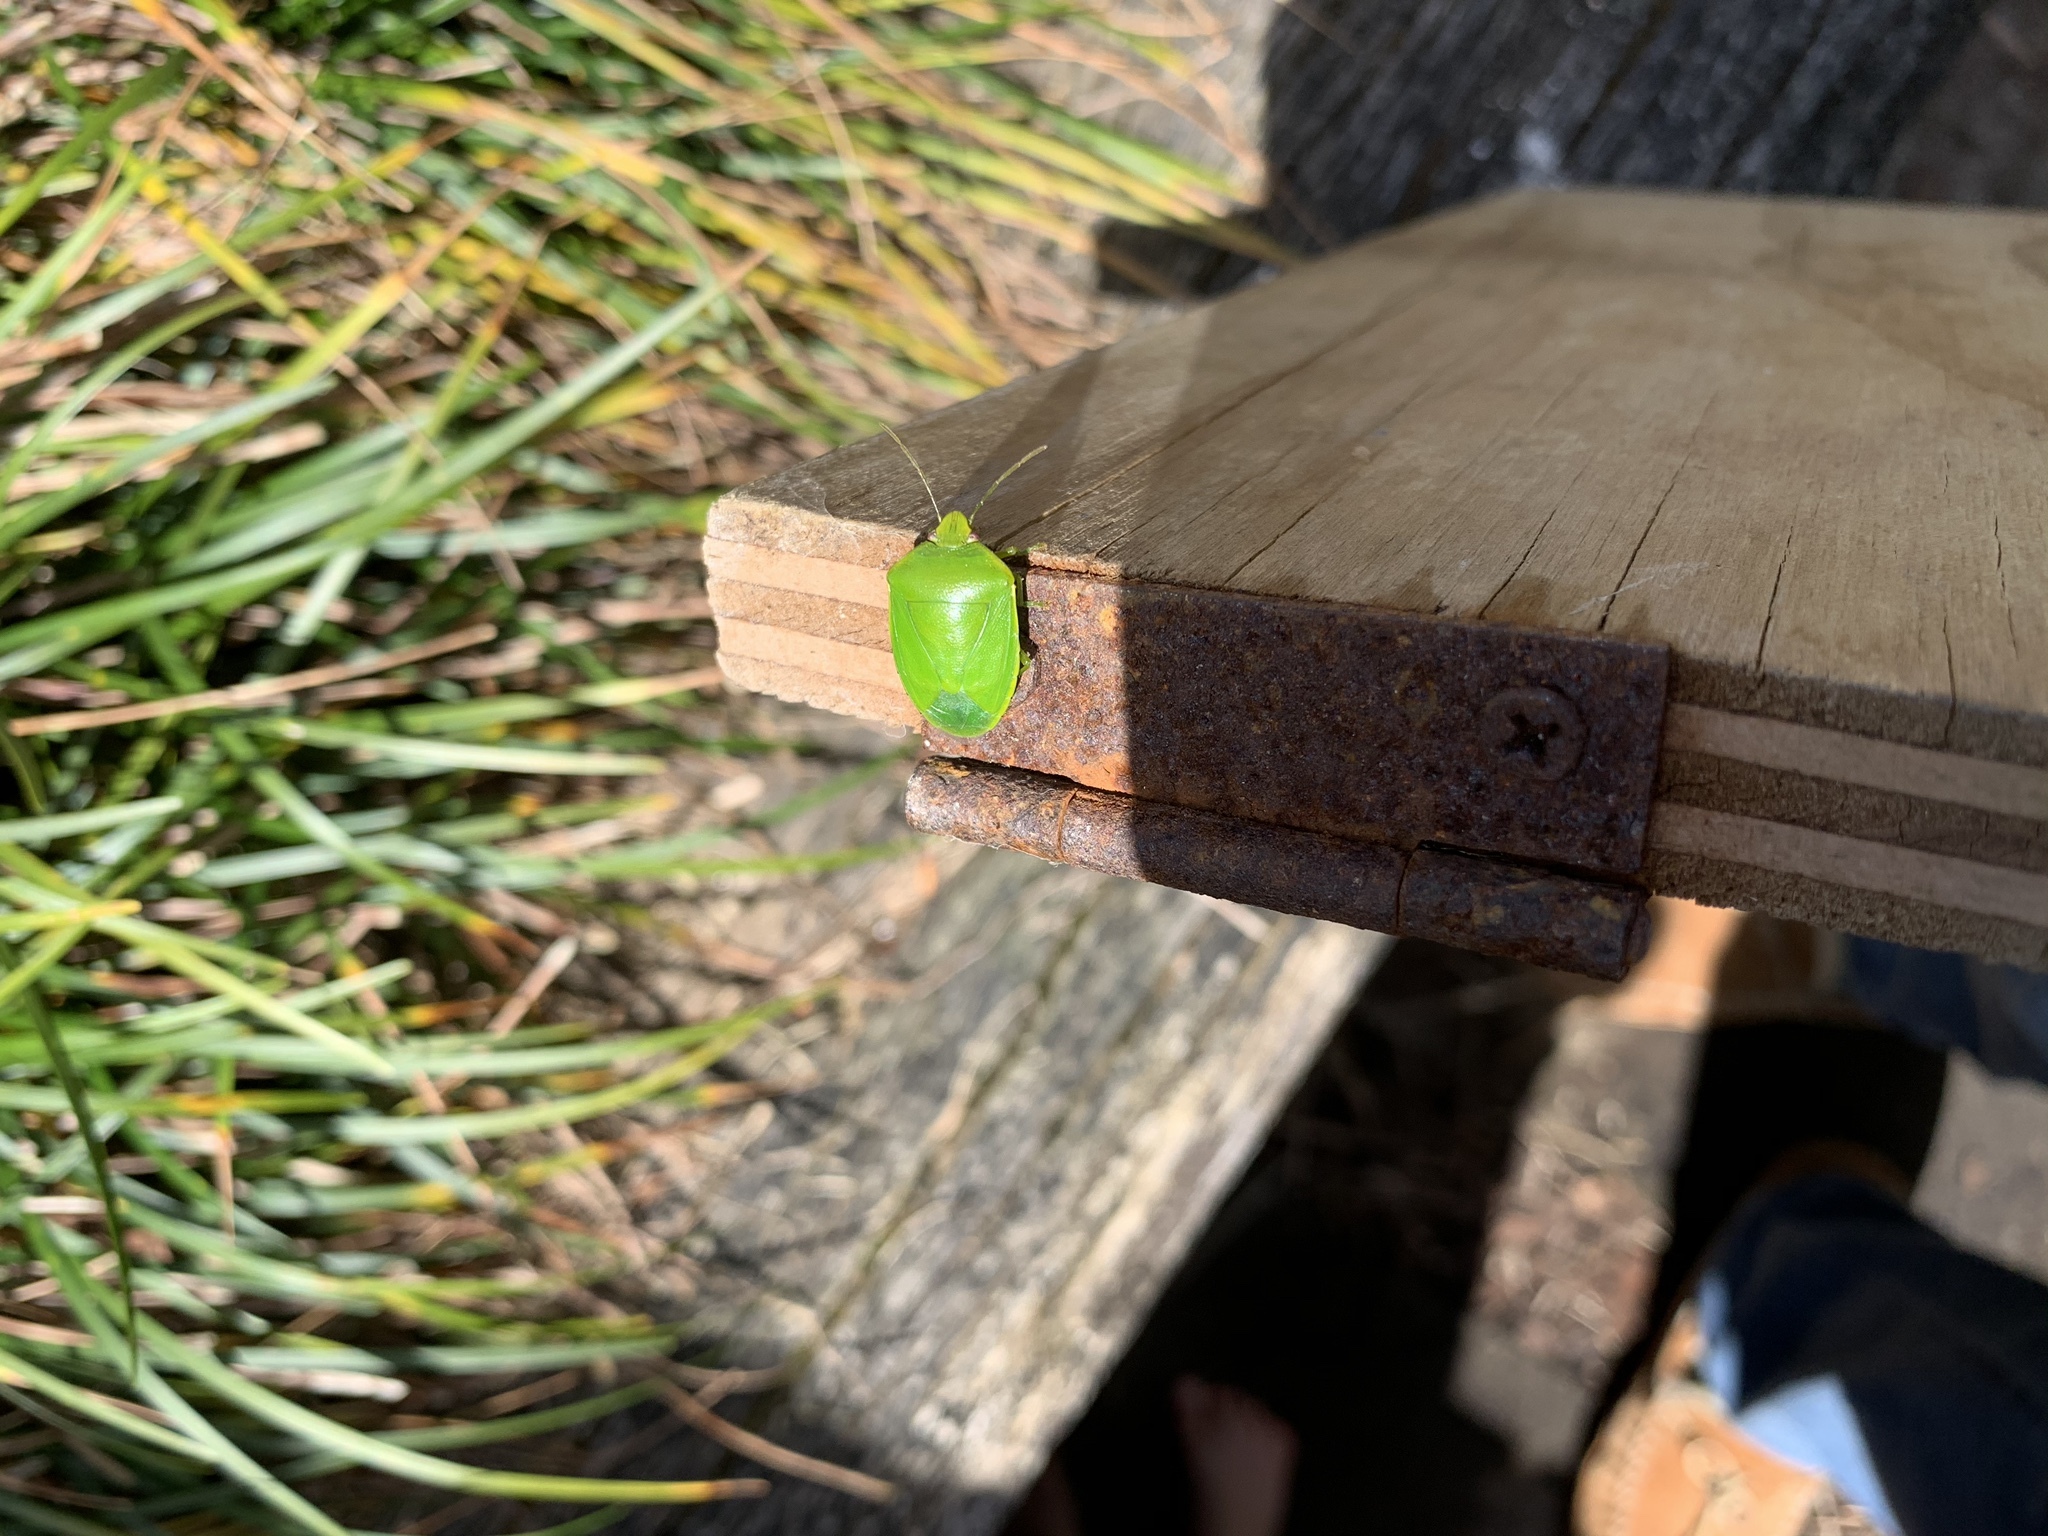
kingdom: Animalia
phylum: Arthropoda
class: Insecta
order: Hemiptera
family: Pentatomidae
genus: Nezara
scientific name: Nezara viridula
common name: Southern green stink bug
